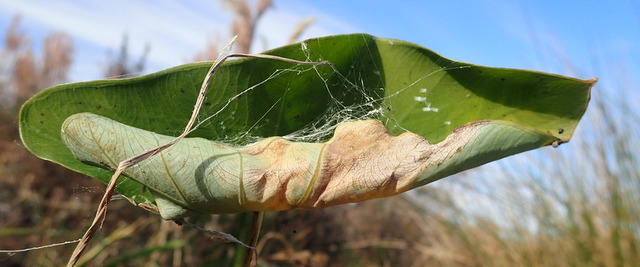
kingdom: Animalia
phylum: Arthropoda
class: Arachnida
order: Araneae
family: Araneidae
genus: Larinioides
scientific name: Larinioides cornutus
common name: Furrow orbweaver
